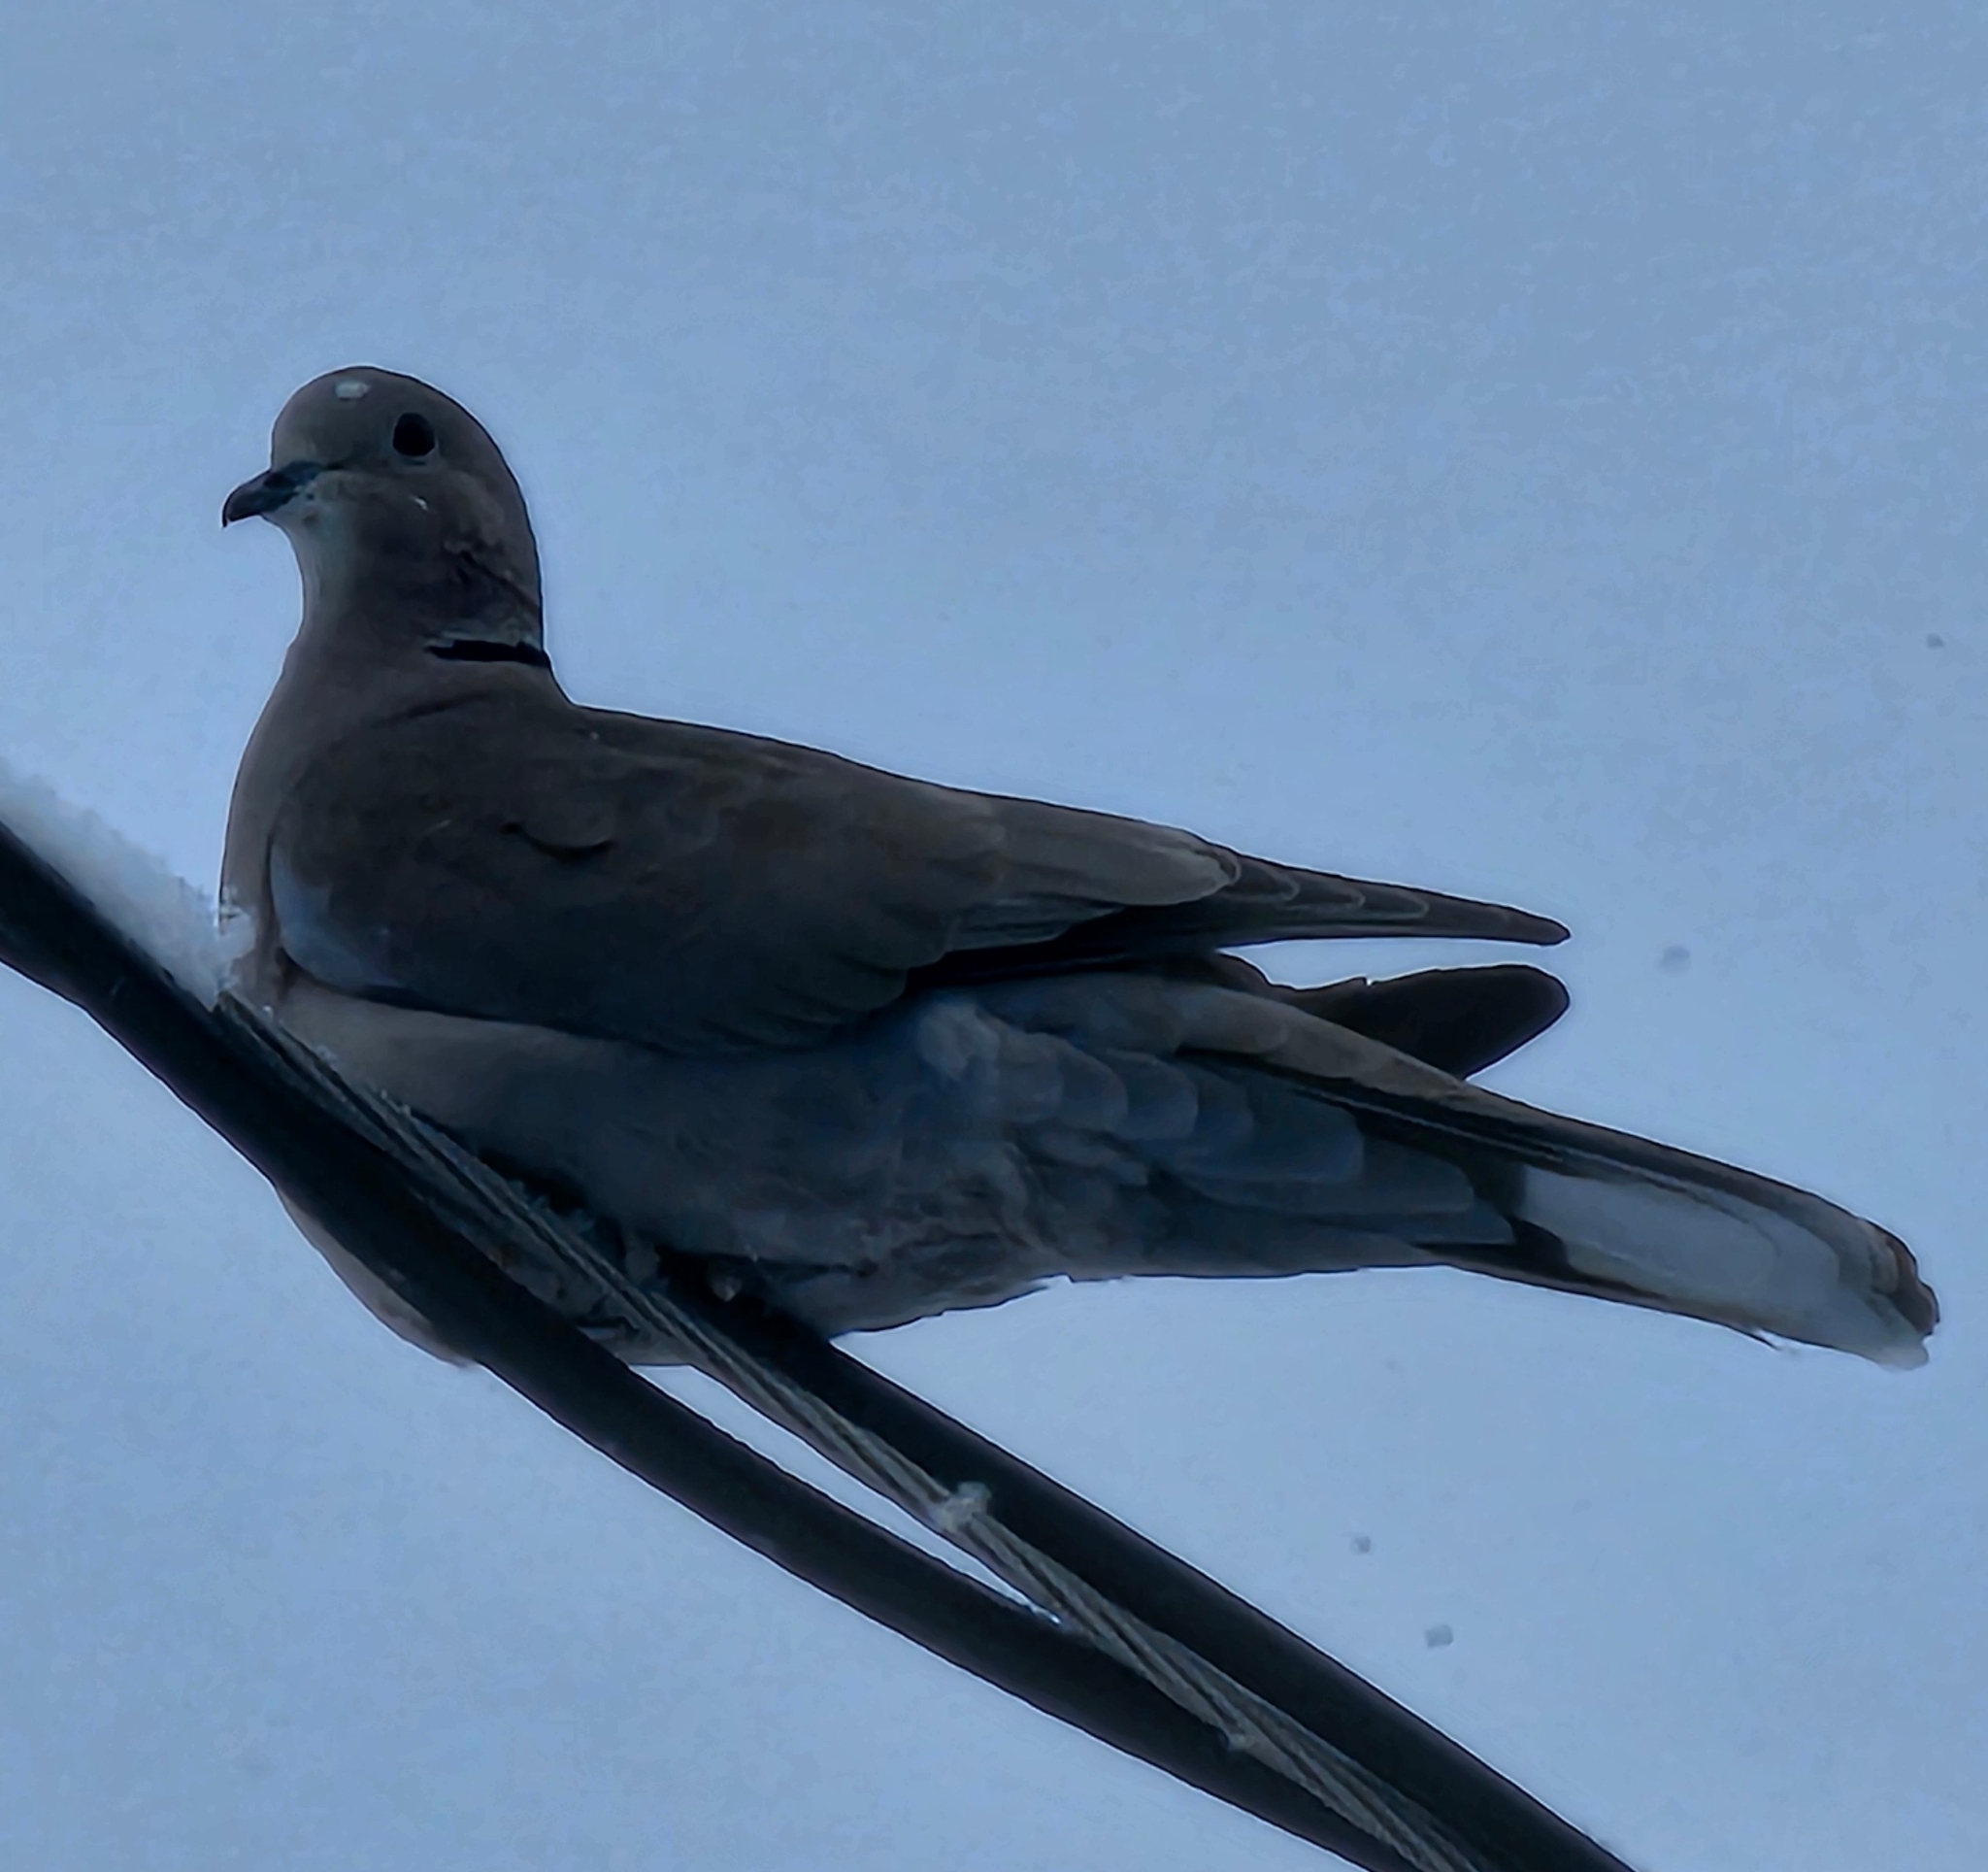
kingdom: Animalia
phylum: Chordata
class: Aves
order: Columbiformes
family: Columbidae
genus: Streptopelia
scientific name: Streptopelia decaocto
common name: Eurasian collared dove
